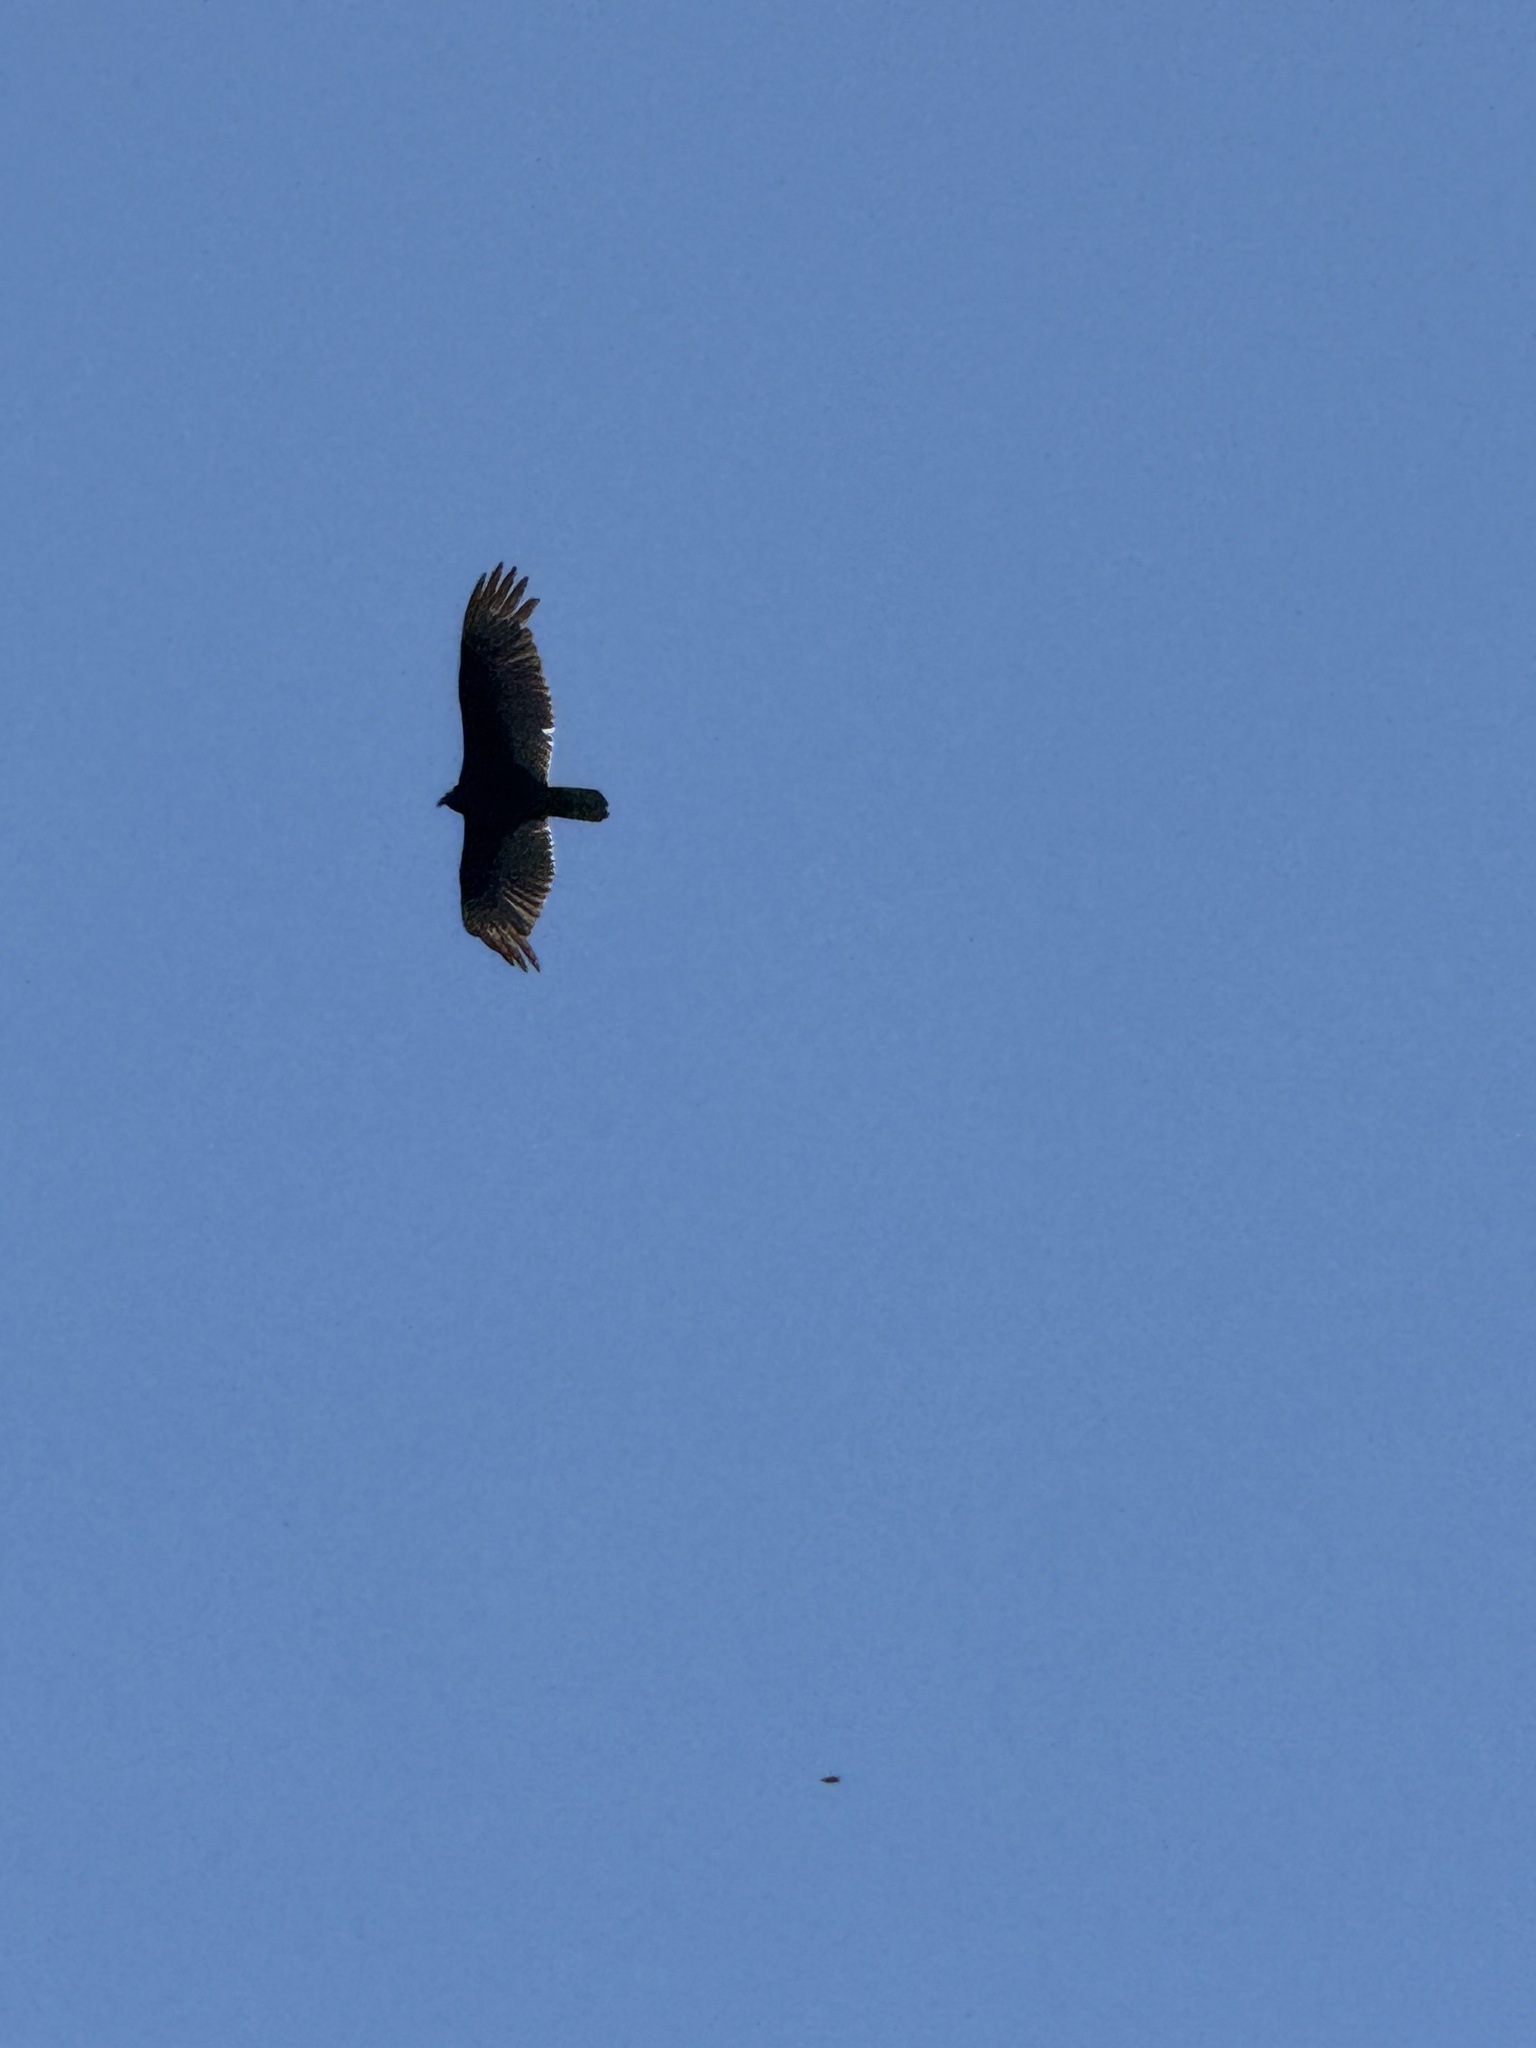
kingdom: Animalia
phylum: Chordata
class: Aves
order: Accipitriformes
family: Cathartidae
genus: Cathartes
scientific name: Cathartes aura
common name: Turkey vulture
